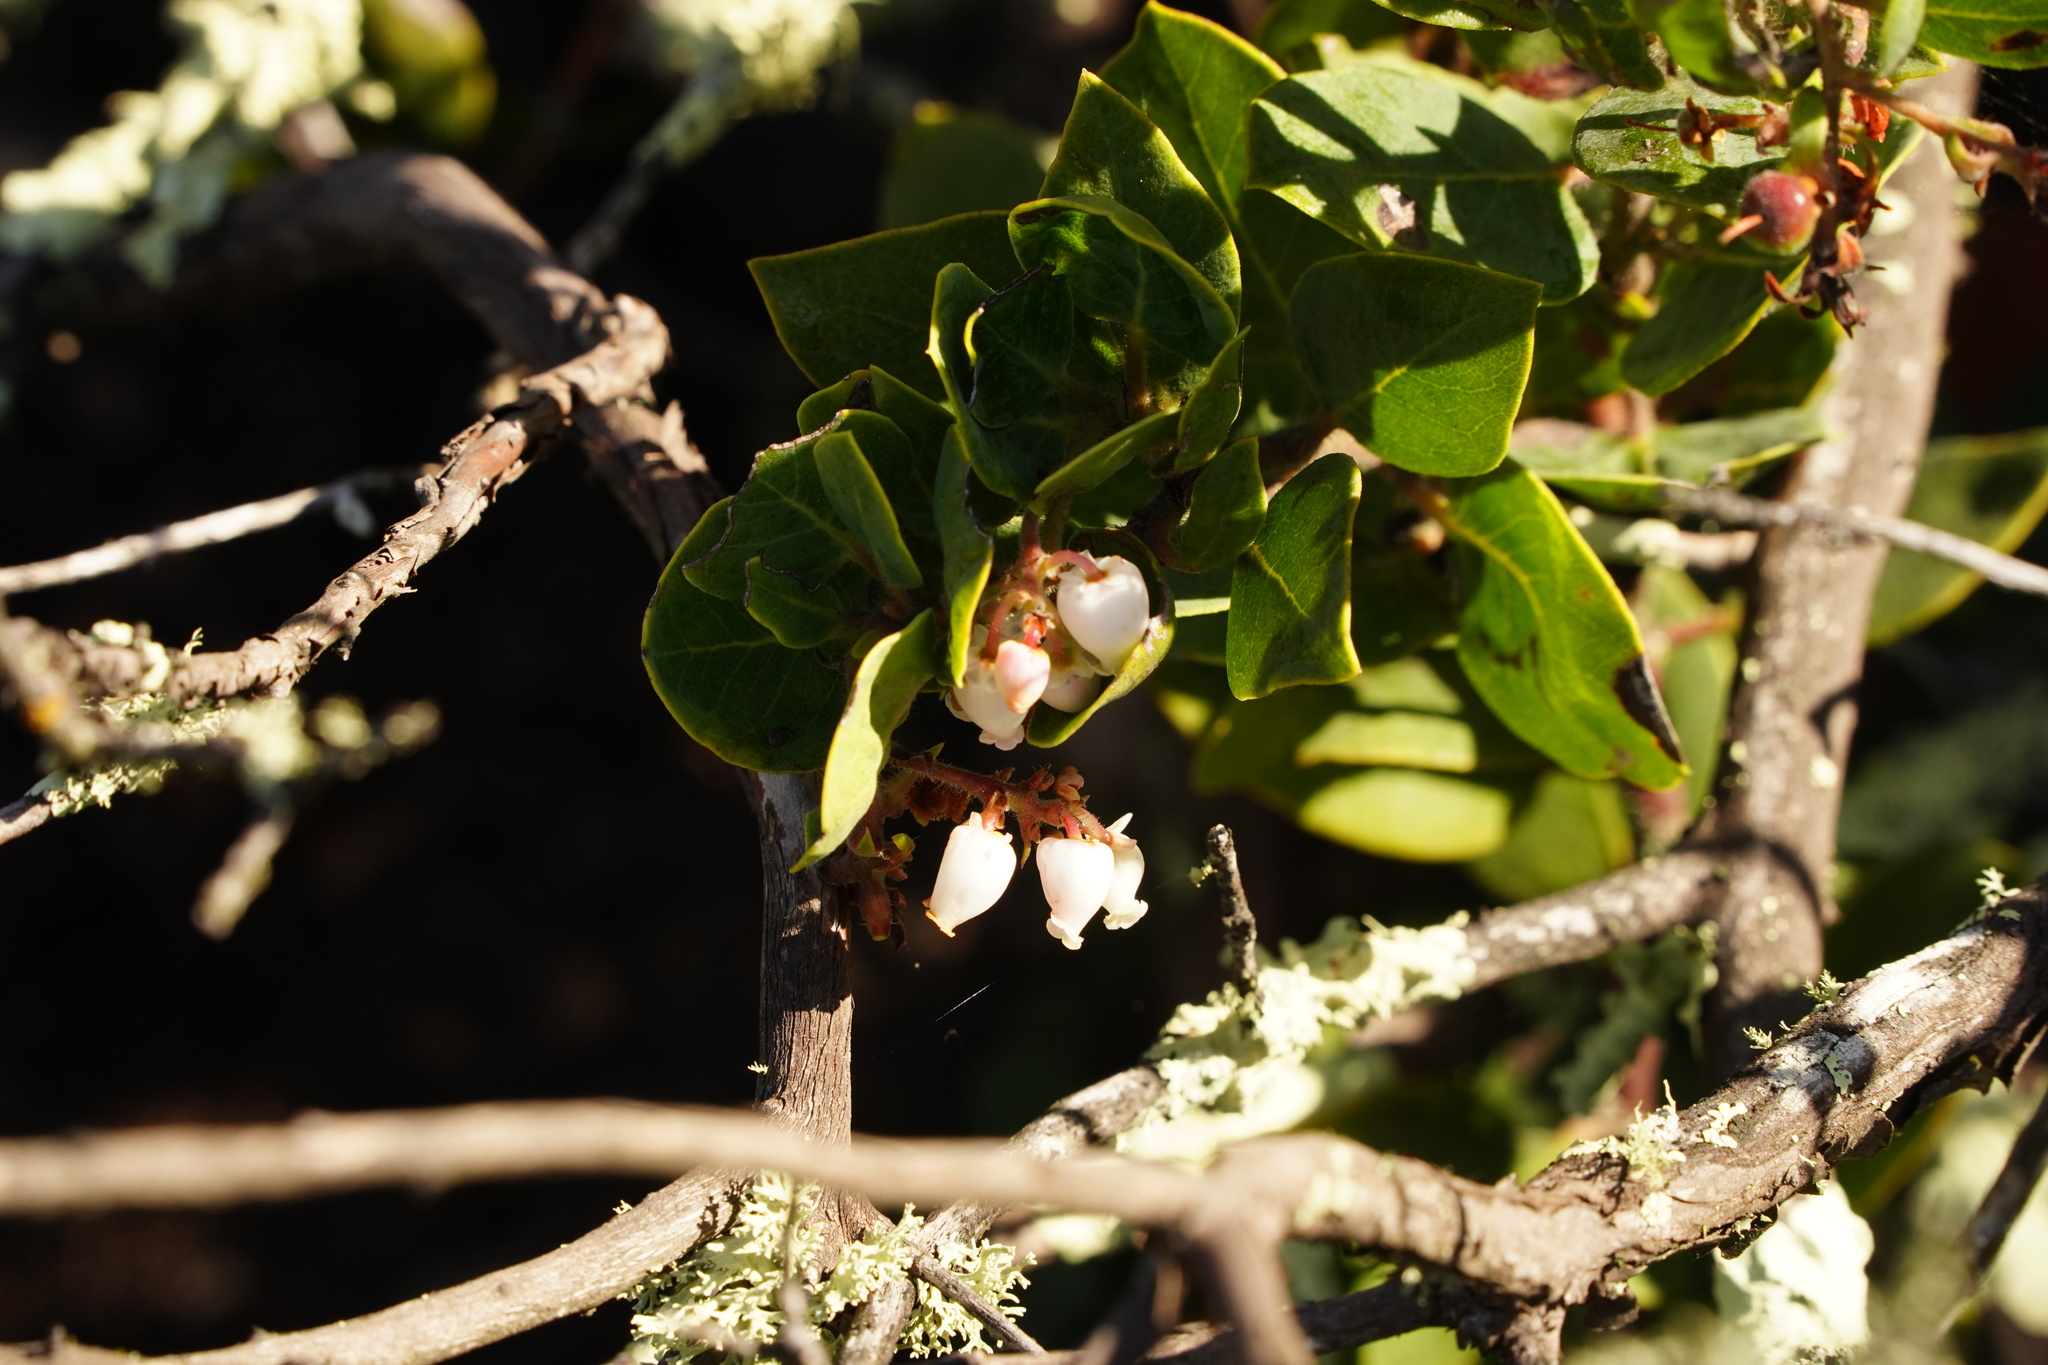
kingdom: Plantae
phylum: Tracheophyta
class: Magnoliopsida
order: Ericales
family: Ericaceae
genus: Arctostaphylos
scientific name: Arctostaphylos crustacea
